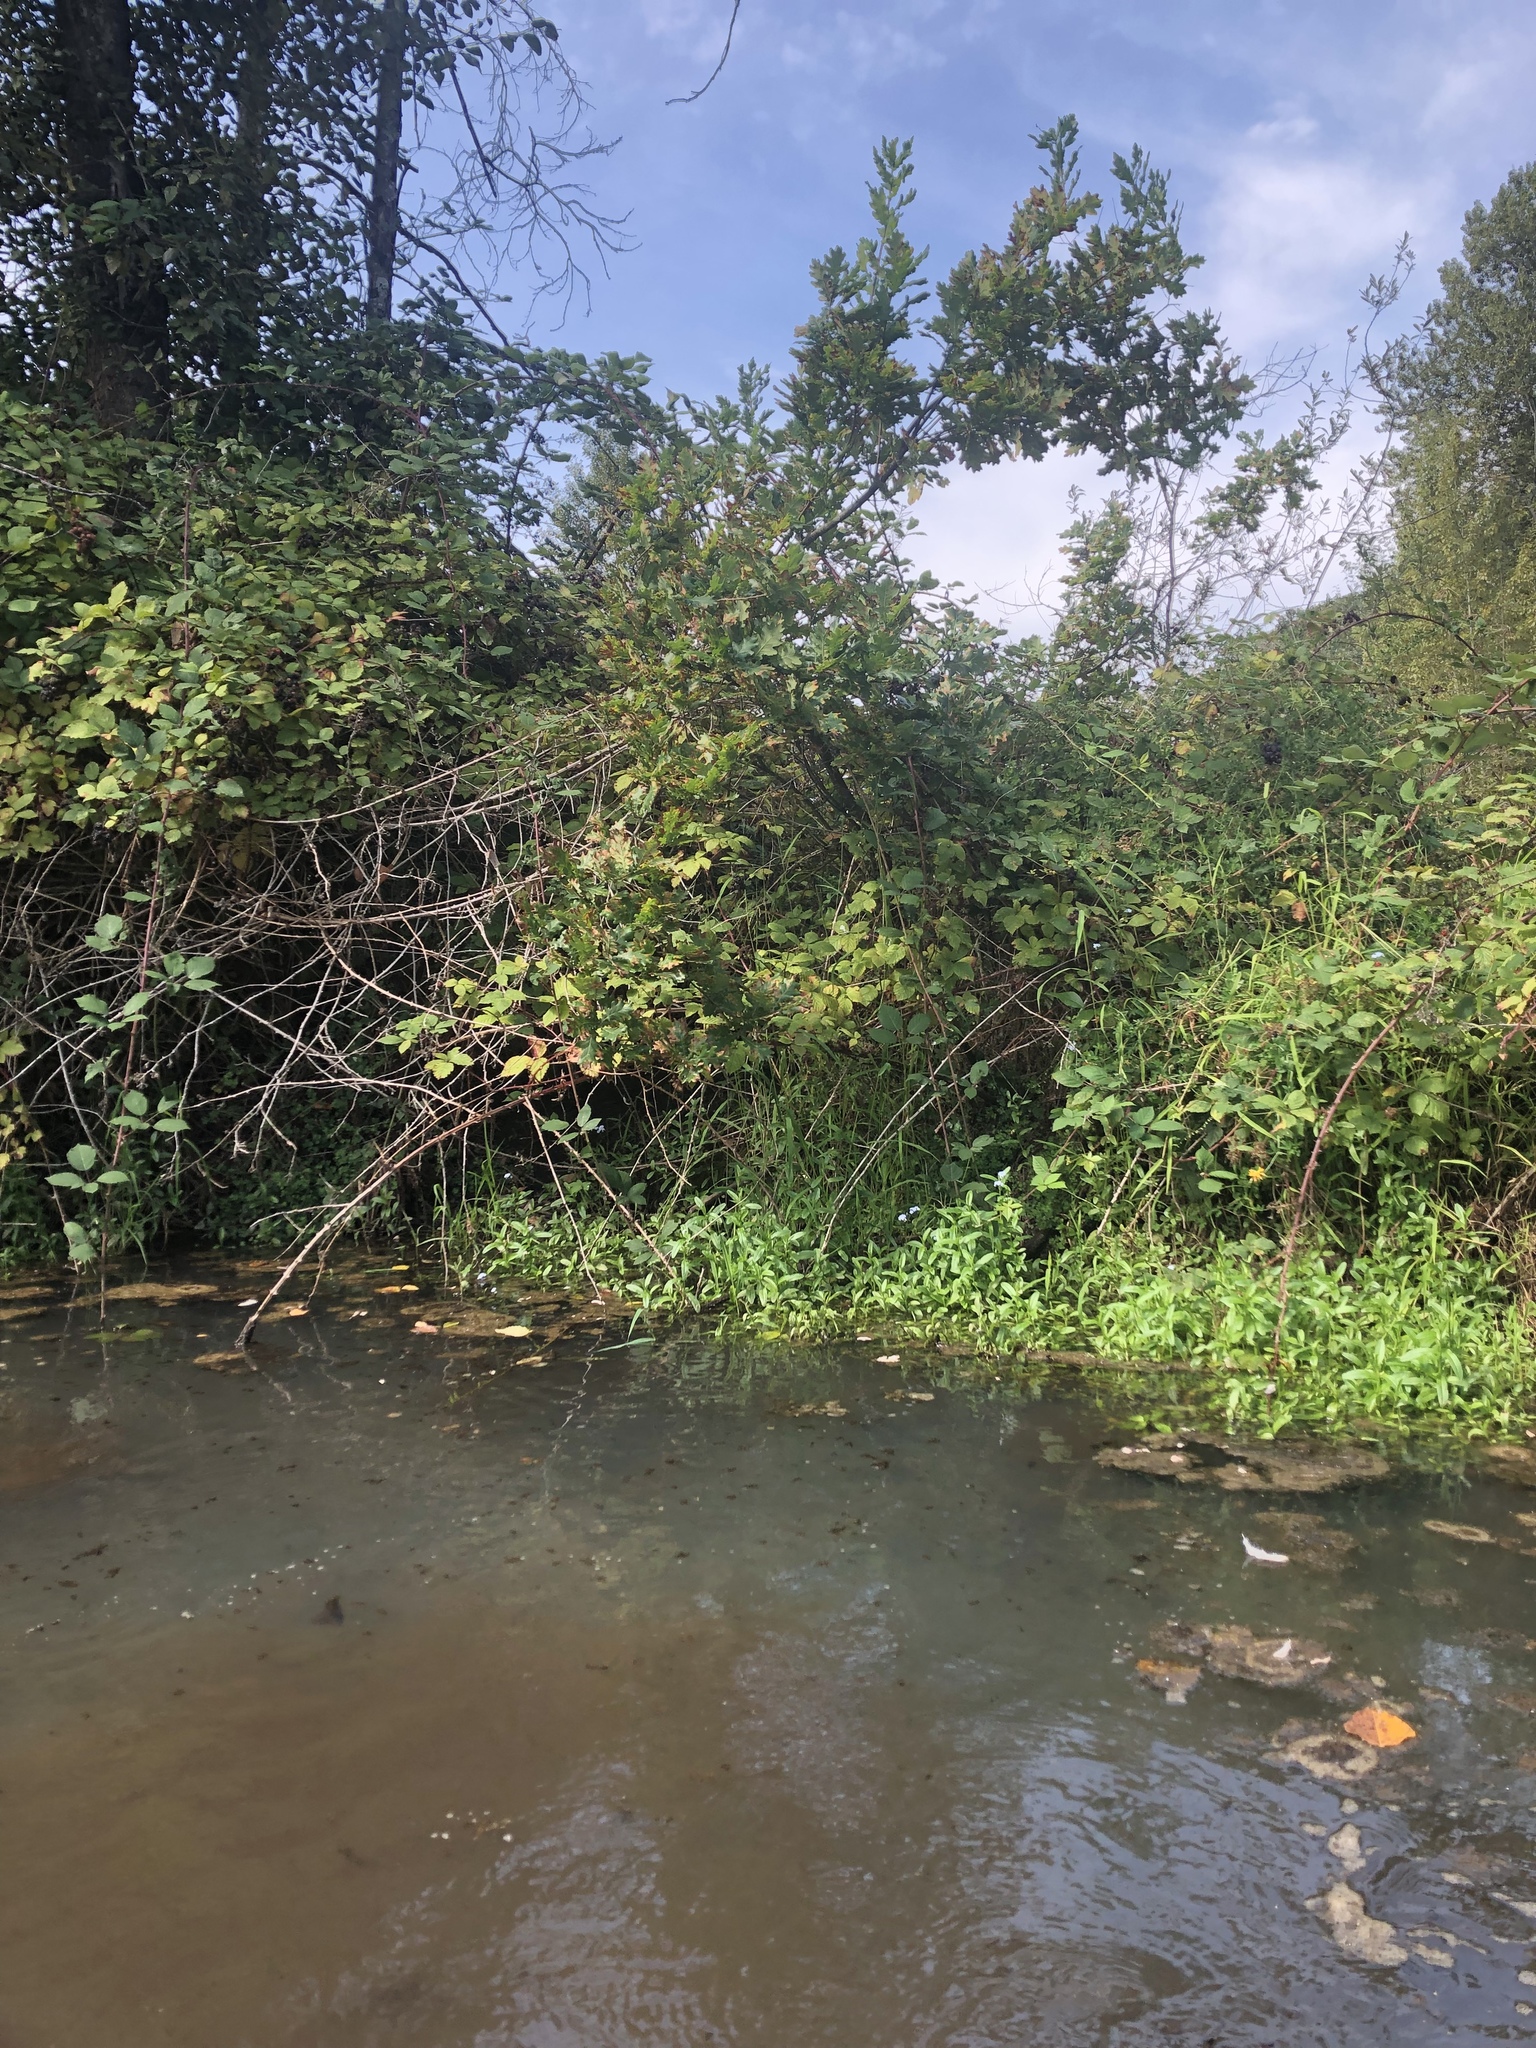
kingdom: Plantae
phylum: Tracheophyta
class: Magnoliopsida
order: Fagales
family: Fagaceae
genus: Quercus
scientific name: Quercus robur
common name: Pedunculate oak
